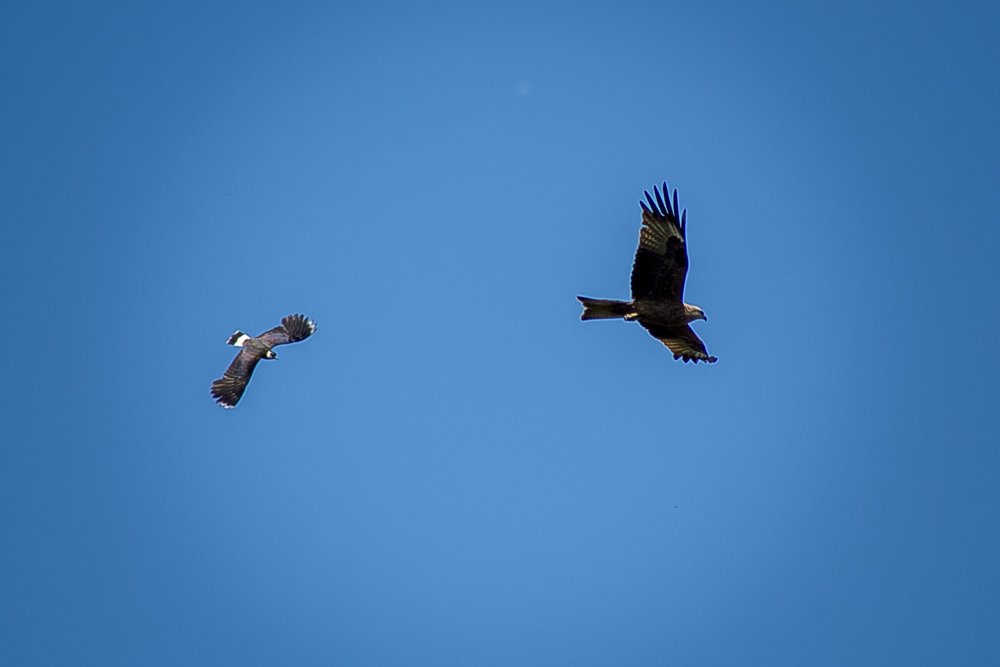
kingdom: Animalia
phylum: Chordata
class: Aves
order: Charadriiformes
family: Charadriidae
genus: Vanellus
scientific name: Vanellus vanellus
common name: Northern lapwing
